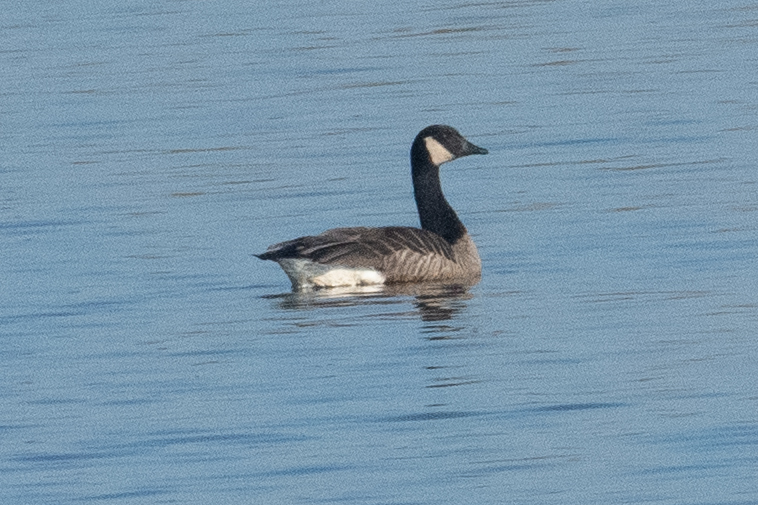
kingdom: Animalia
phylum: Chordata
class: Aves
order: Anseriformes
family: Anatidae
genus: Branta
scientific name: Branta canadensis
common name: Canada goose
